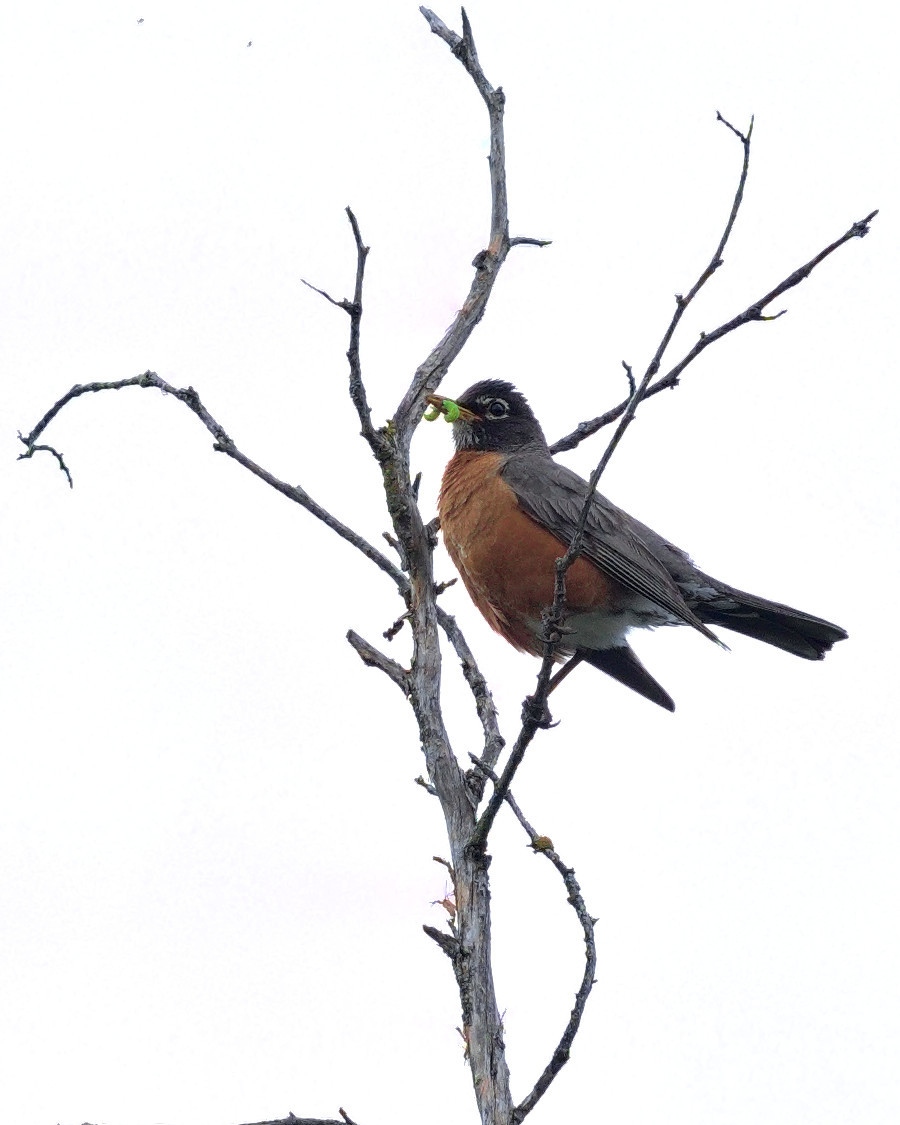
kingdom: Animalia
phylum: Chordata
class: Aves
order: Passeriformes
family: Turdidae
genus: Turdus
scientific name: Turdus migratorius
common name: American robin
